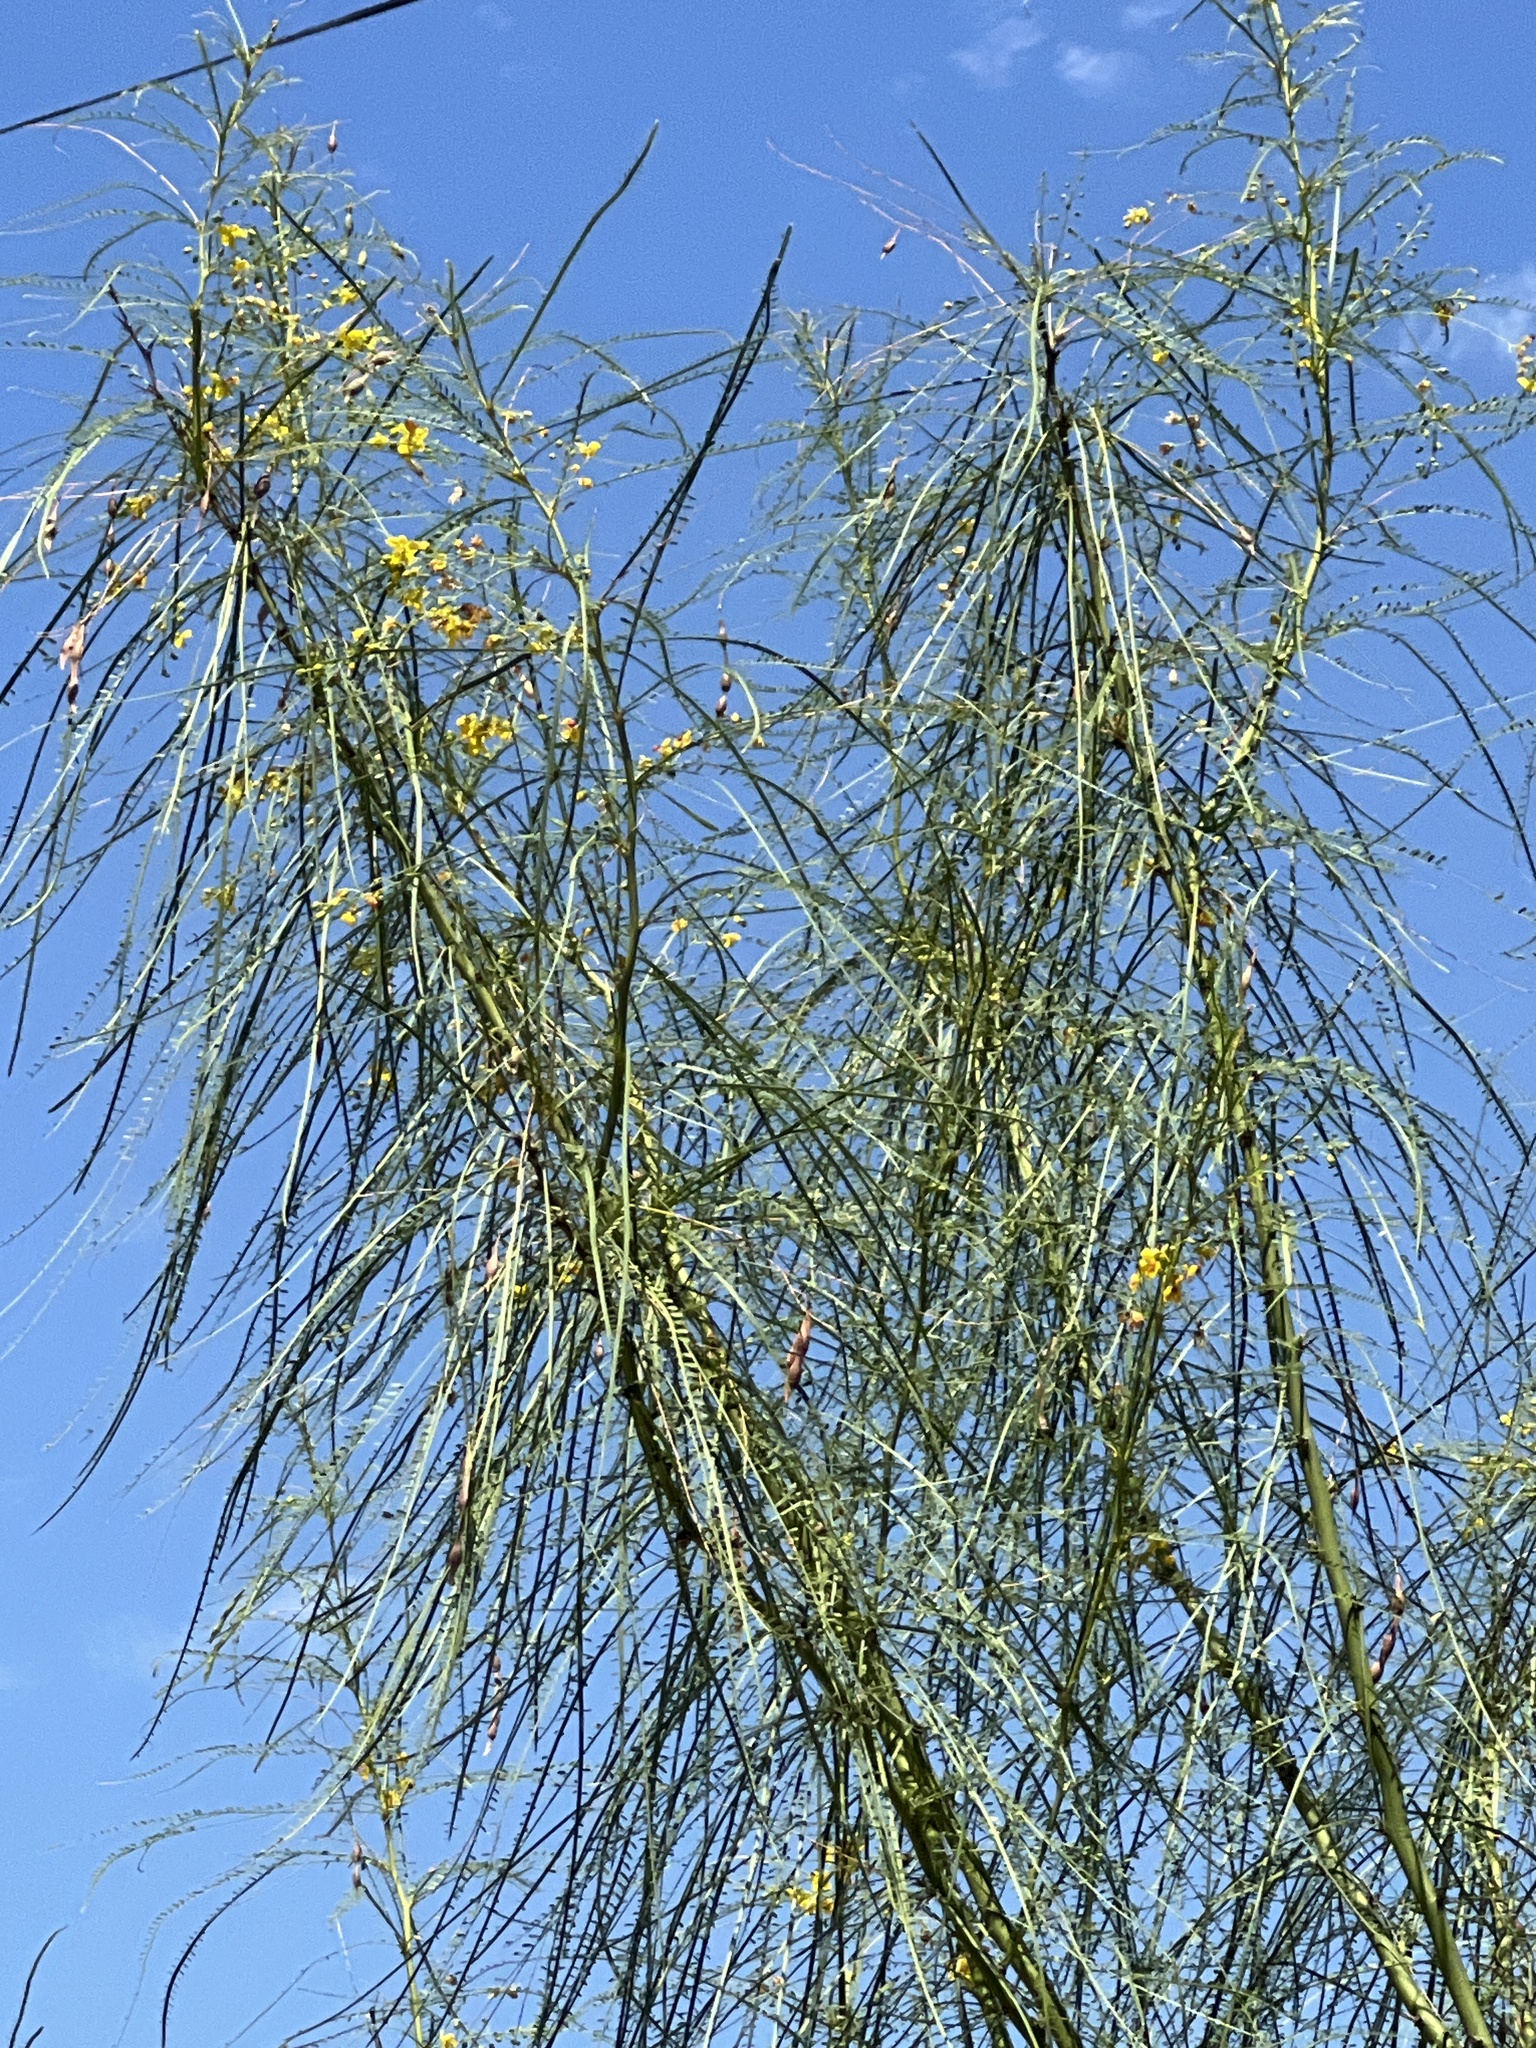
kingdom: Plantae
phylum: Tracheophyta
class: Magnoliopsida
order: Fabales
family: Fabaceae
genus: Parkinsonia
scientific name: Parkinsonia aculeata
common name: Jerusalem thorn
